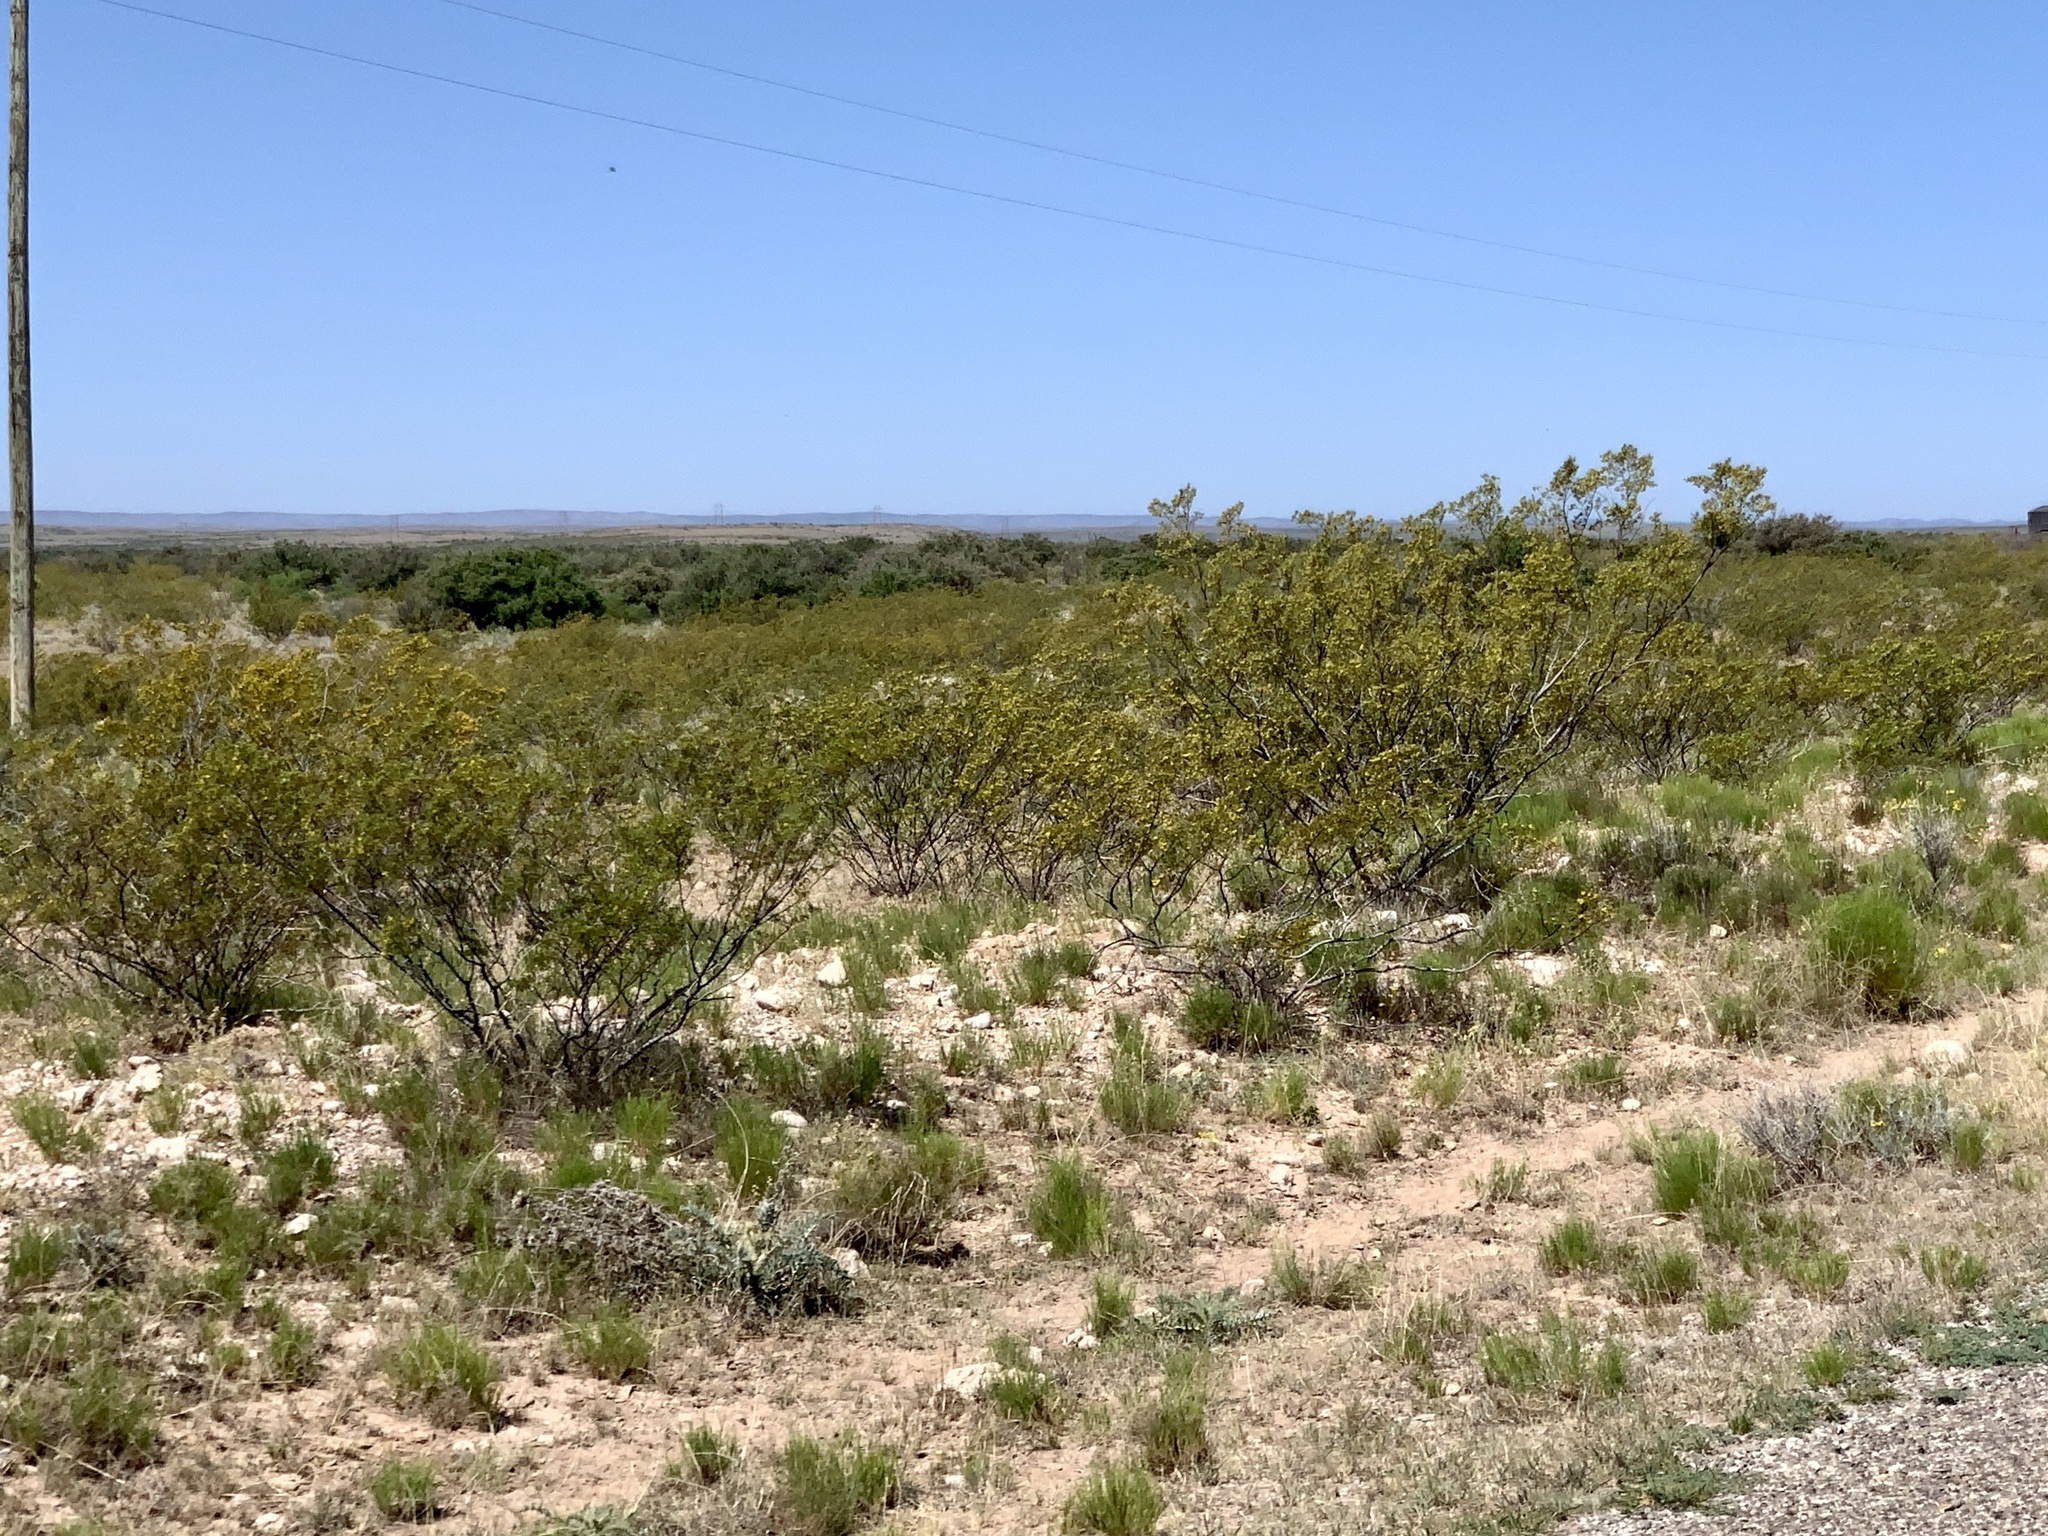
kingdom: Plantae
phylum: Tracheophyta
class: Magnoliopsida
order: Zygophyllales
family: Zygophyllaceae
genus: Larrea
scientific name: Larrea tridentata
